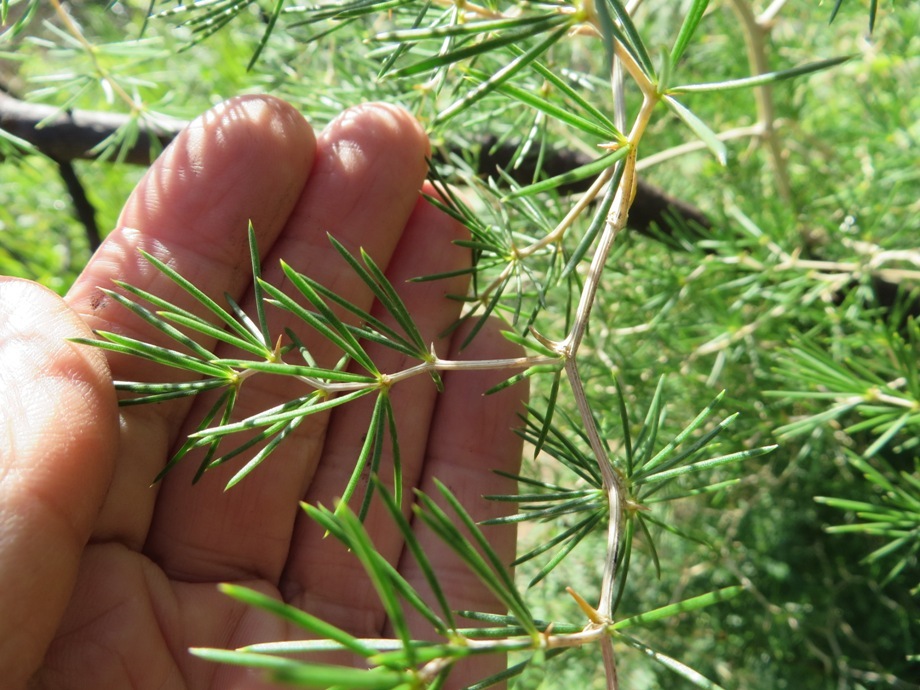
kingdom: Plantae
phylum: Tracheophyta
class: Liliopsida
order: Asparagales
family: Asparagaceae
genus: Asparagus
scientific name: Asparagus lignosus
